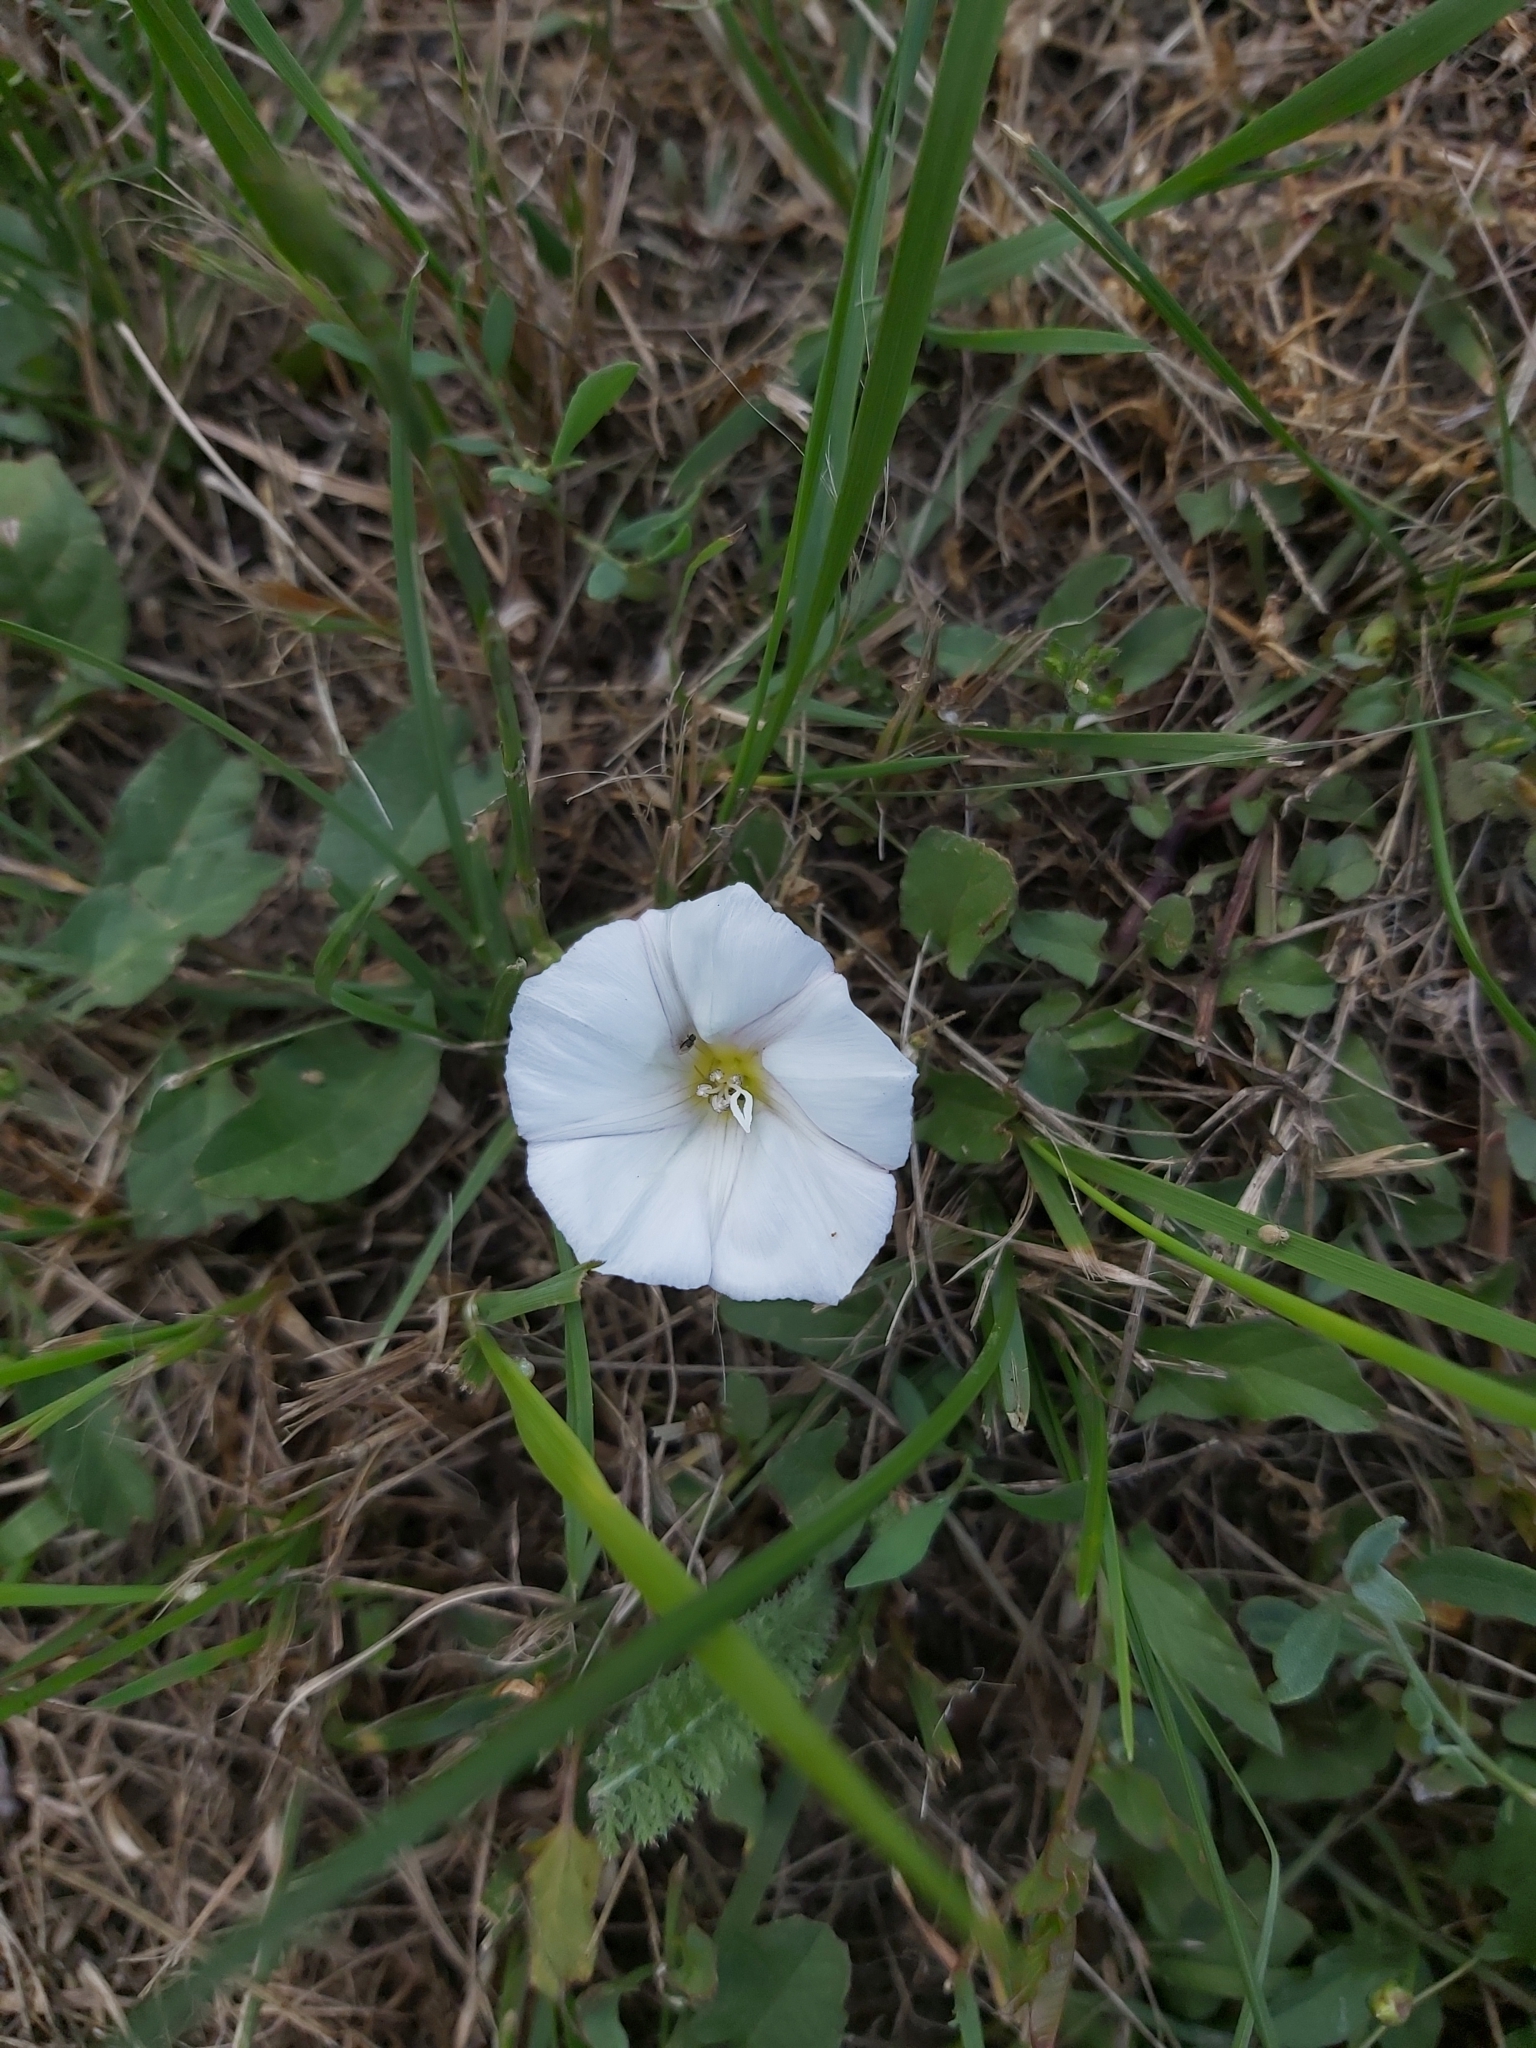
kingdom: Plantae
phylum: Tracheophyta
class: Magnoliopsida
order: Solanales
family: Convolvulaceae
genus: Convolvulus
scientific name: Convolvulus arvensis
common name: Field bindweed
